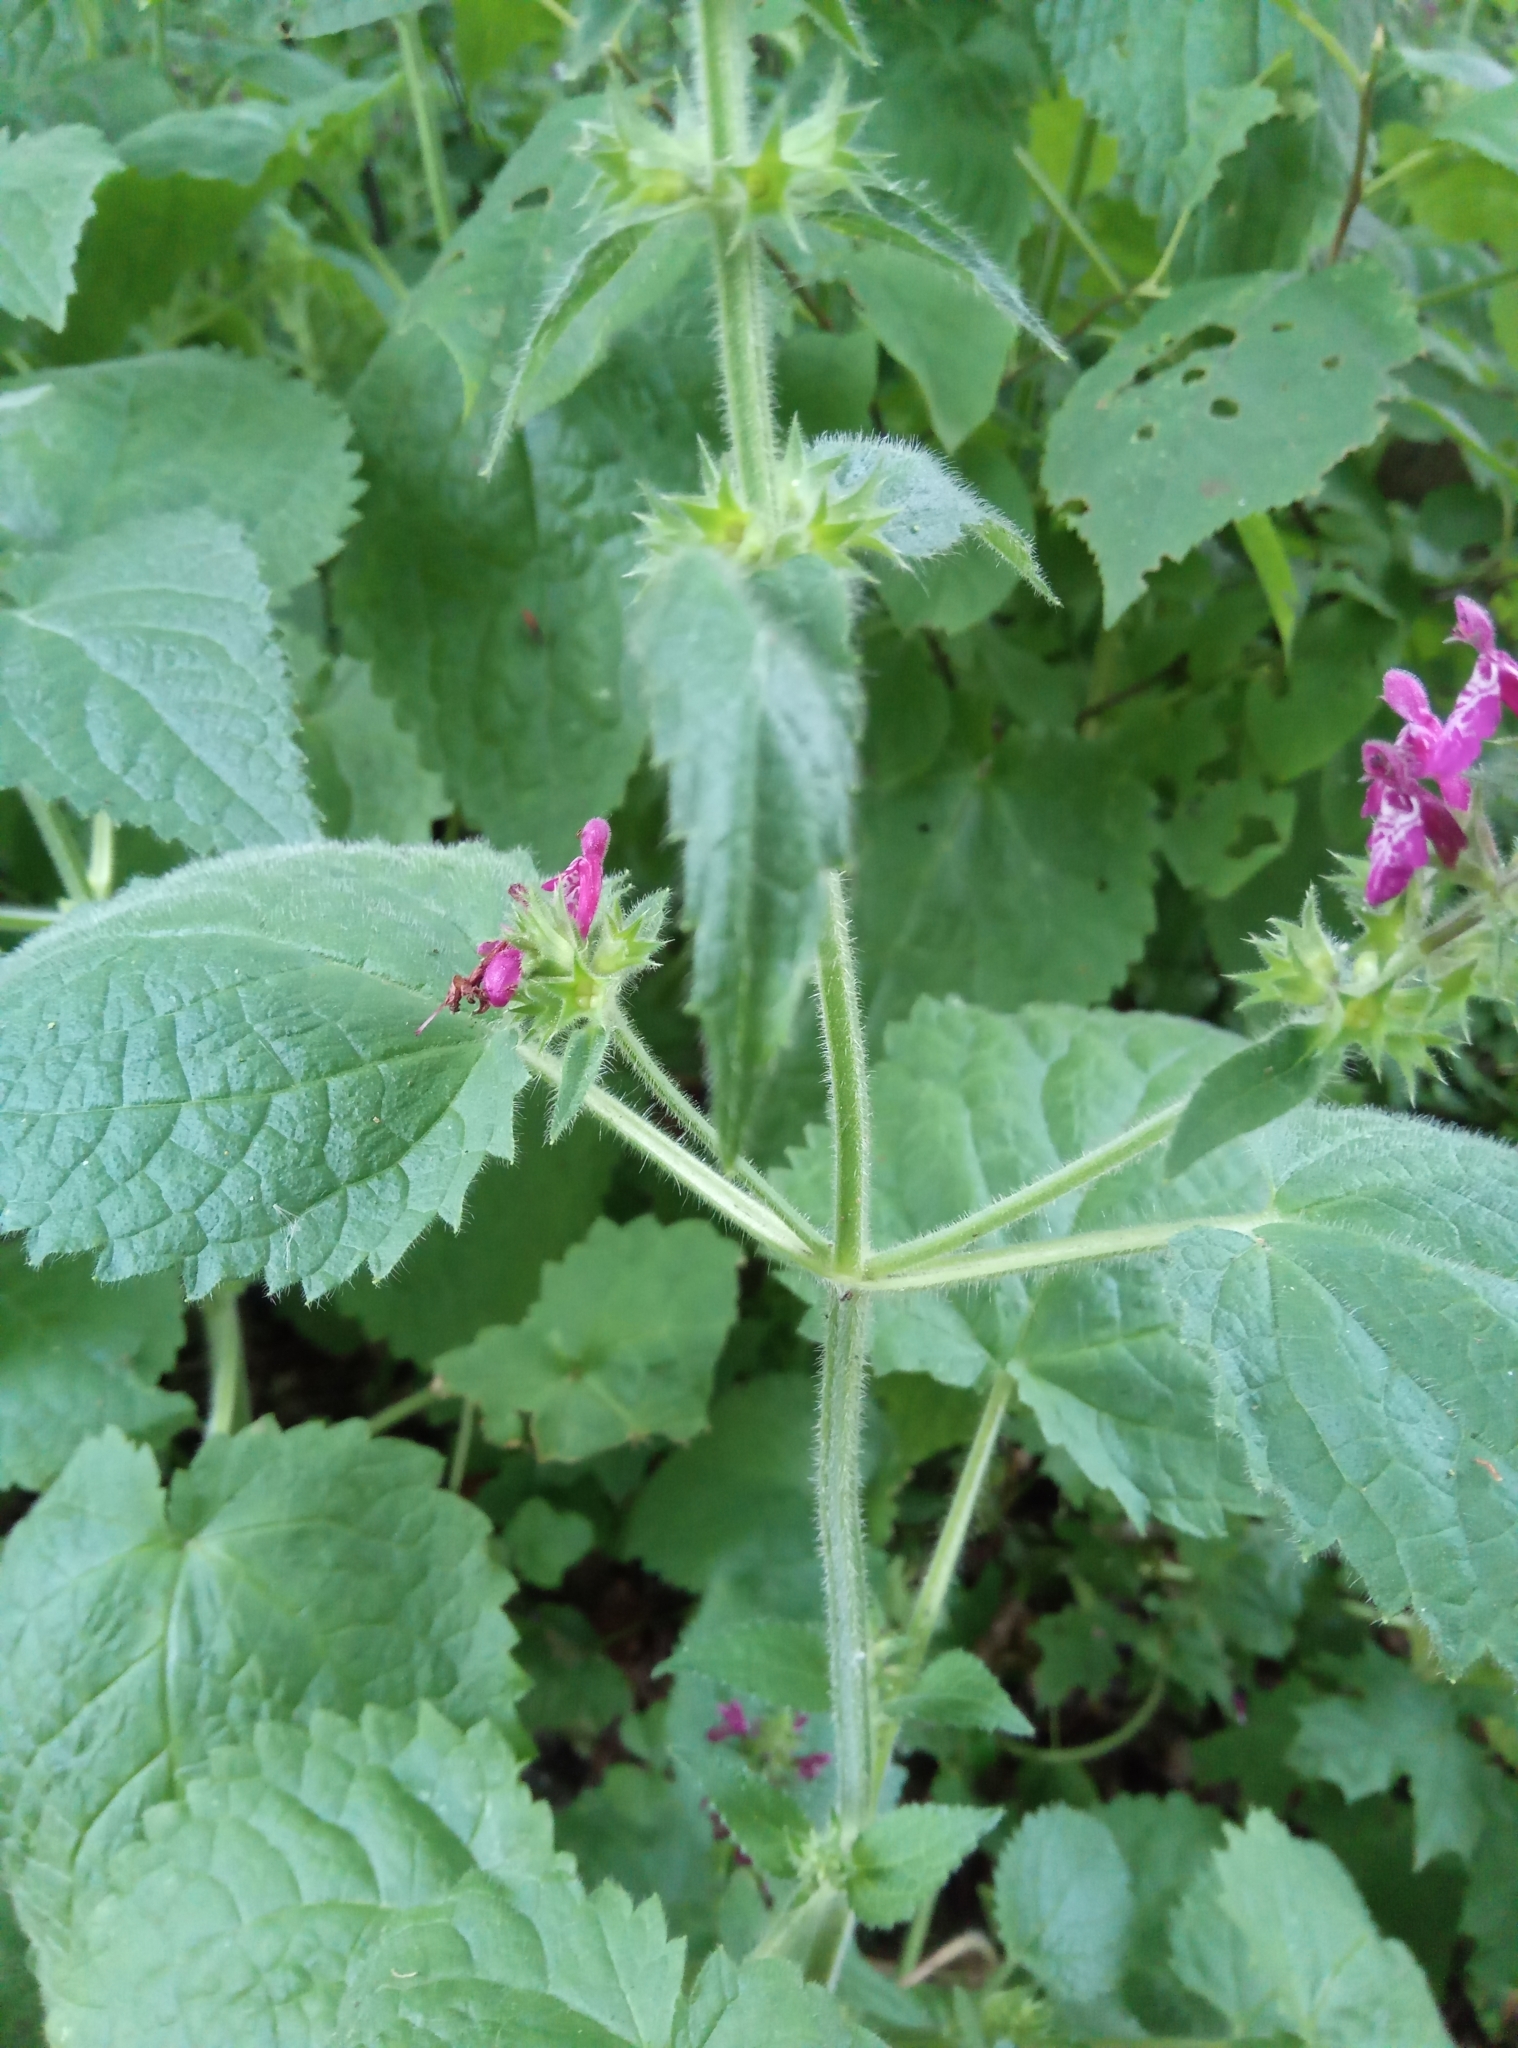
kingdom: Plantae
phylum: Tracheophyta
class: Magnoliopsida
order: Lamiales
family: Lamiaceae
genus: Stachys
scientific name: Stachys sylvatica
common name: Hedge woundwort
